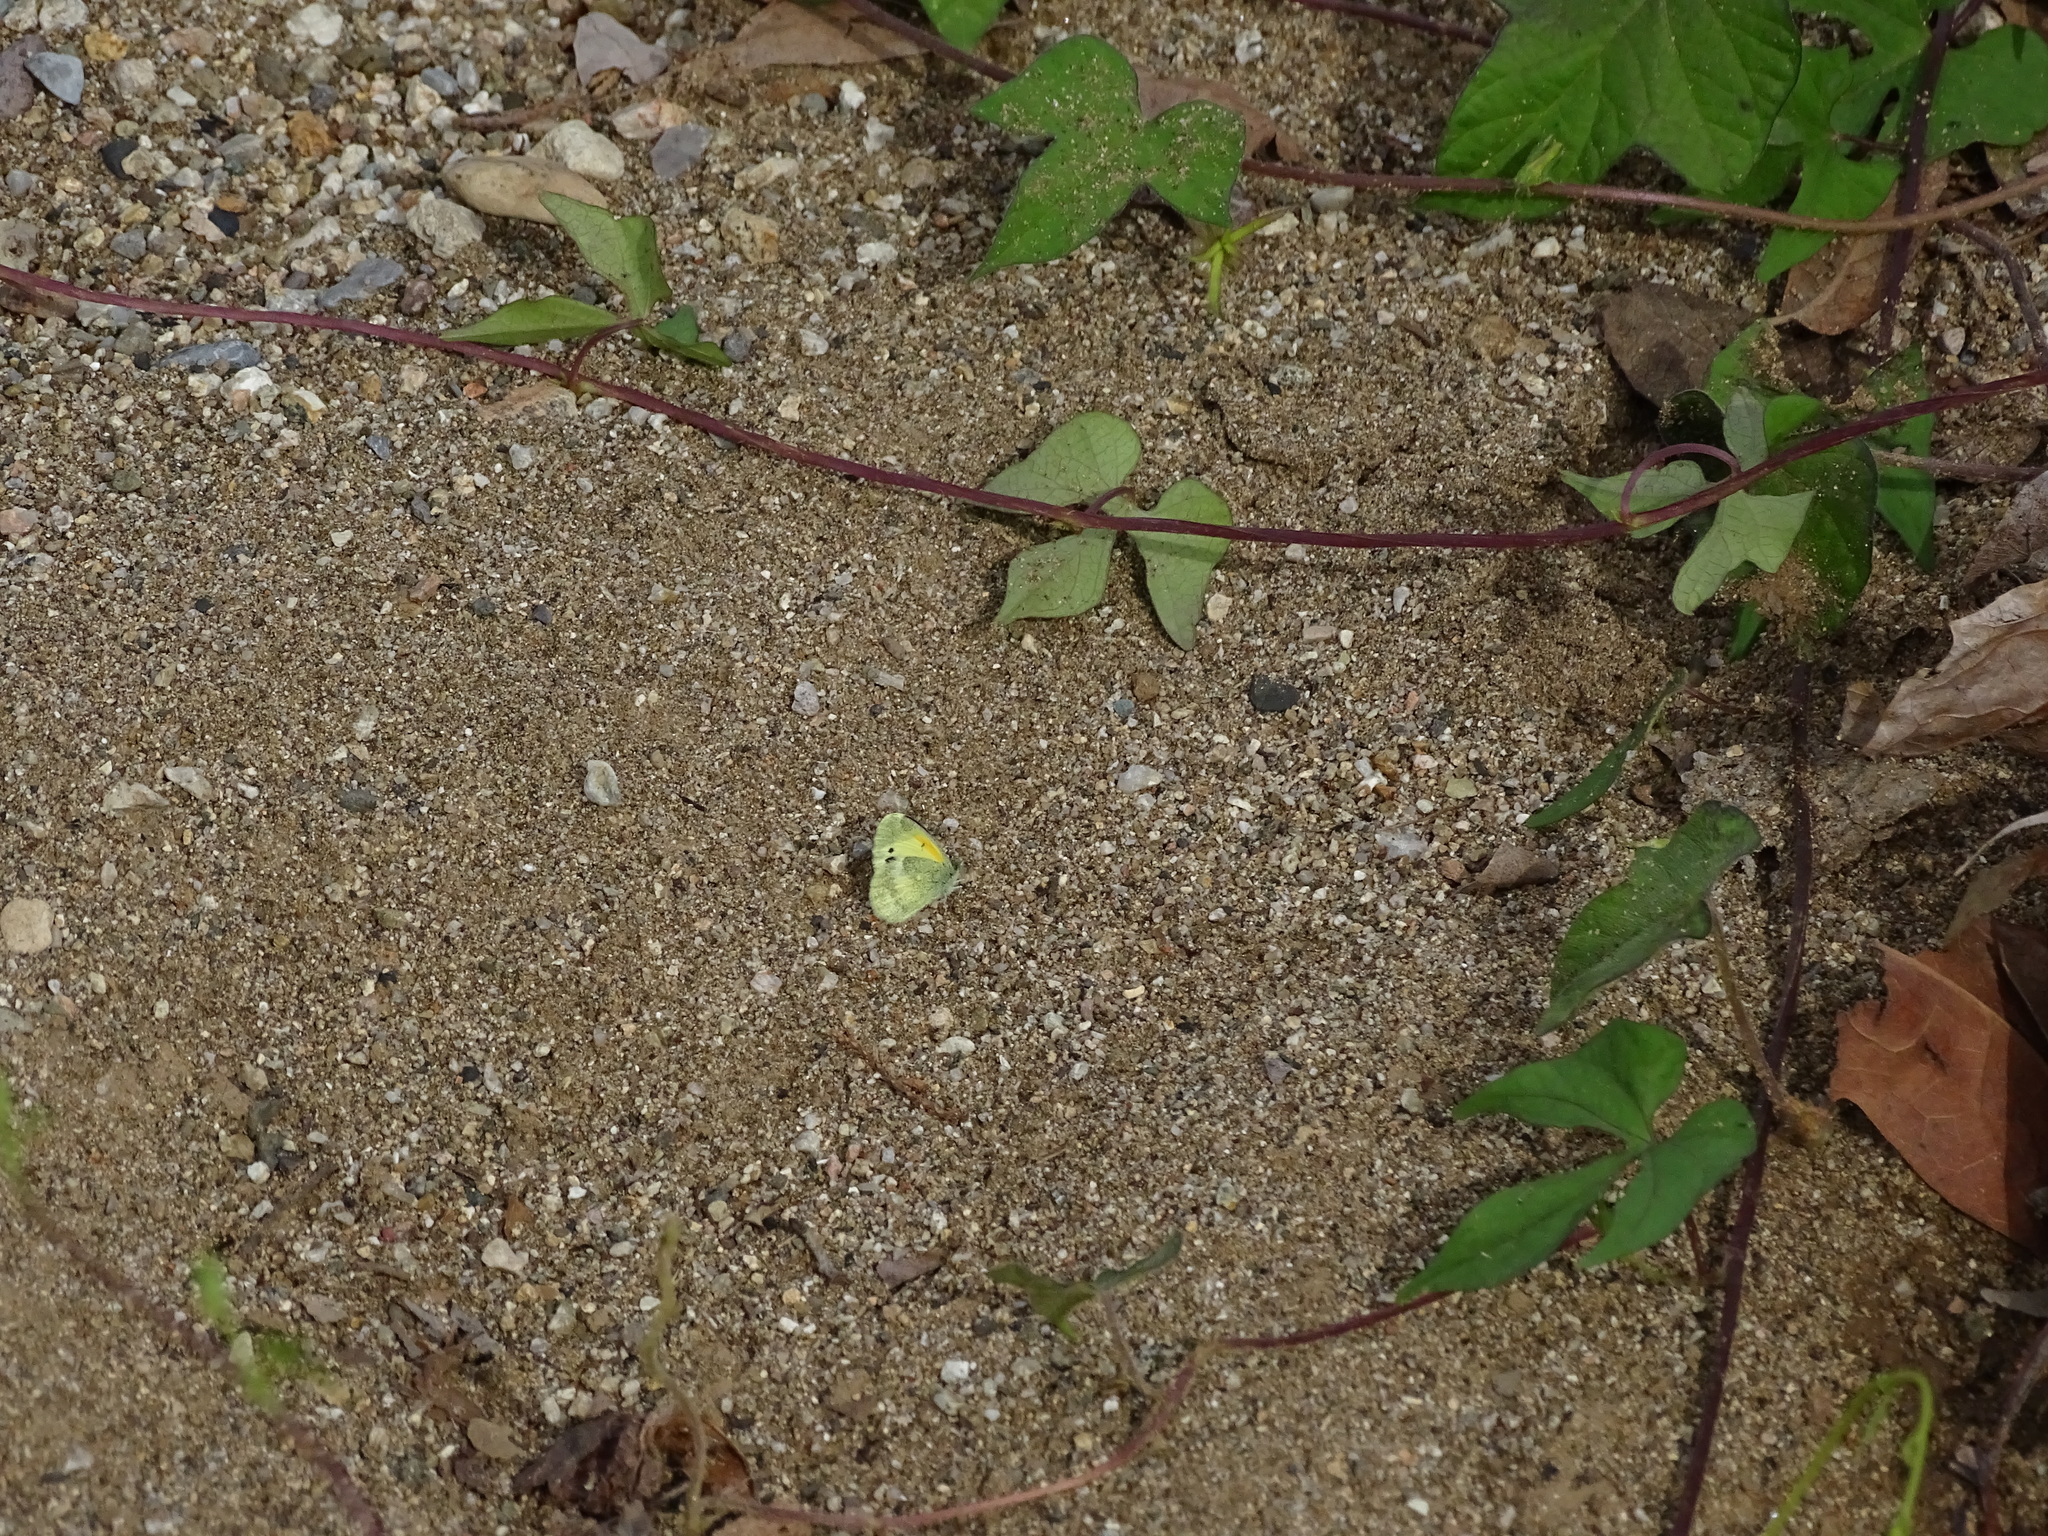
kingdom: Animalia
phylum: Arthropoda
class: Insecta
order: Lepidoptera
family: Pieridae
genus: Nathalis
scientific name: Nathalis iole
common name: Dainty sulphur
